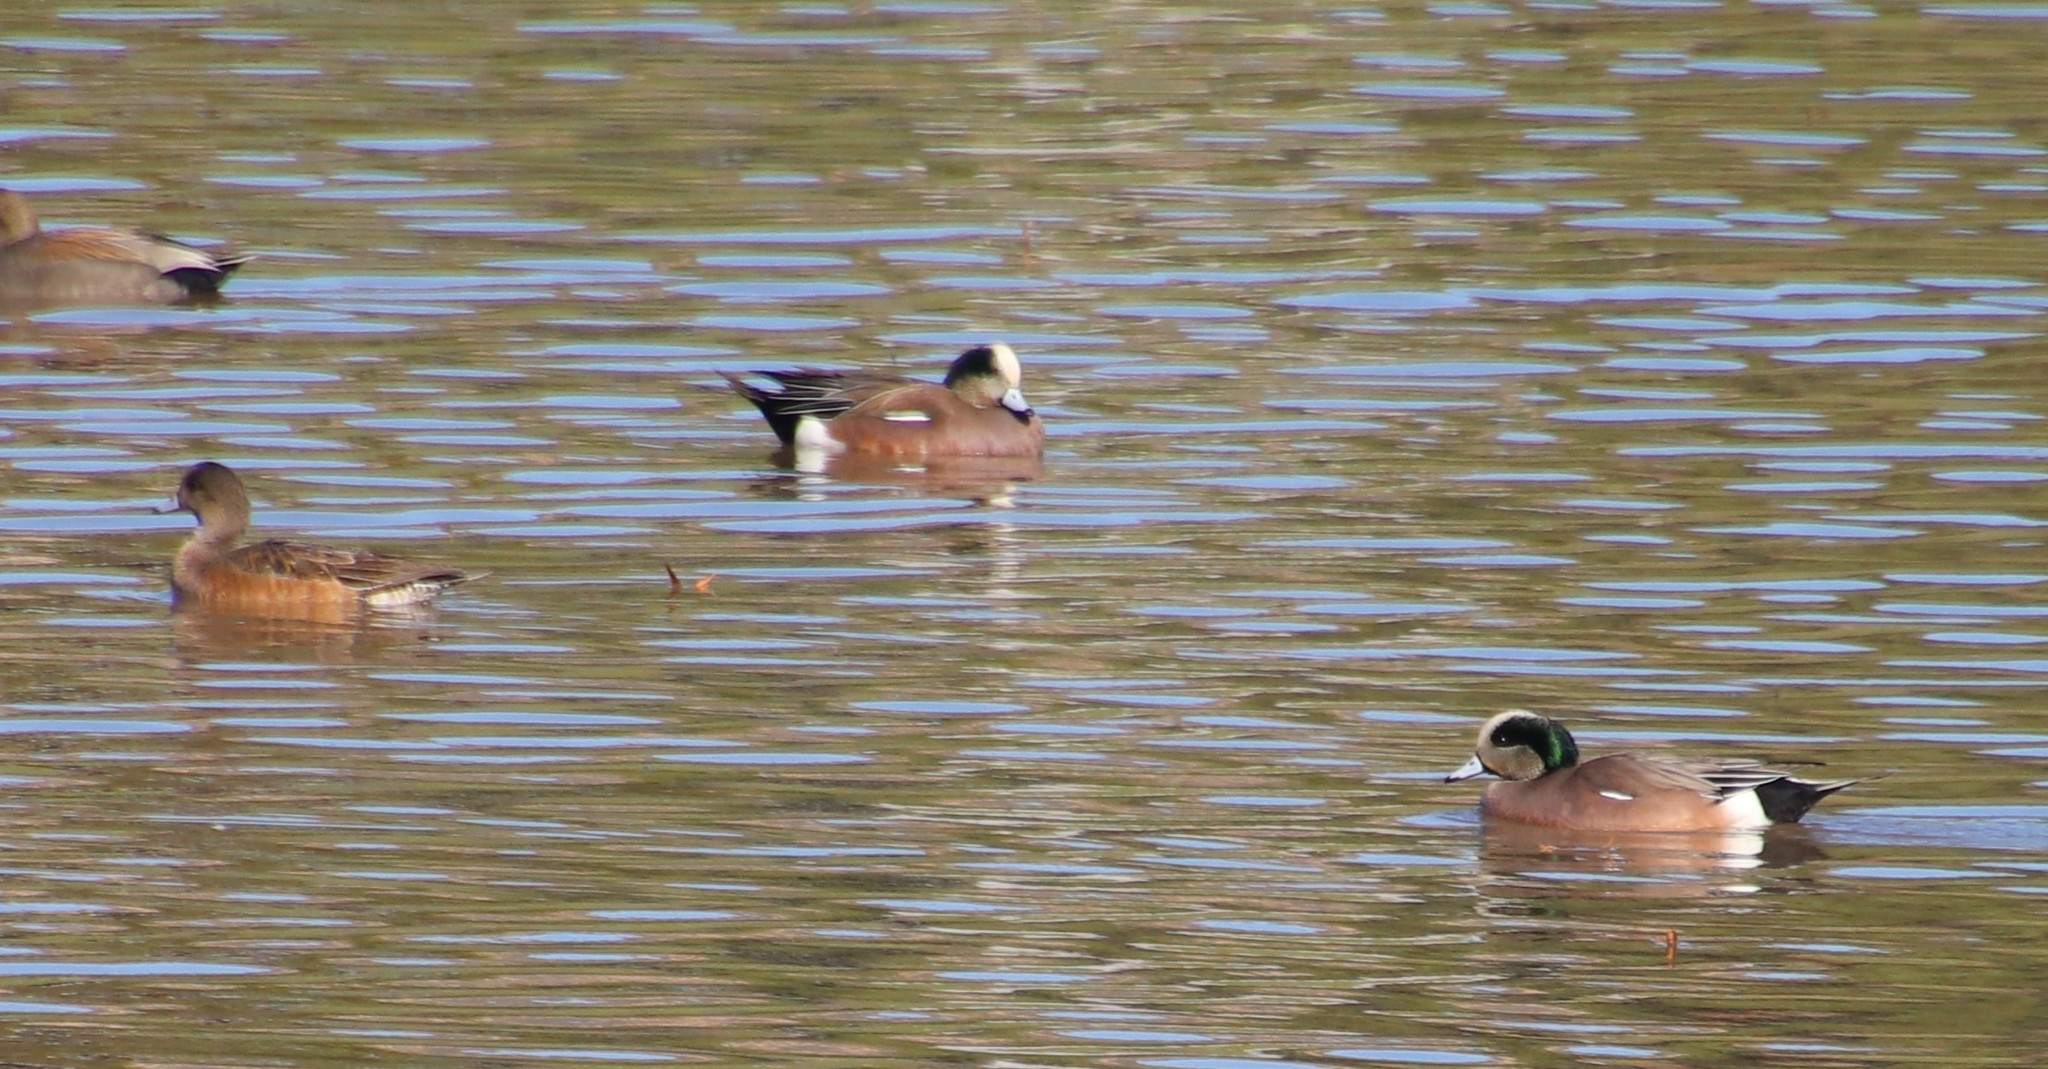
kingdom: Animalia
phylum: Chordata
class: Aves
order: Anseriformes
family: Anatidae
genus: Mareca
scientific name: Mareca americana
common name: American wigeon
